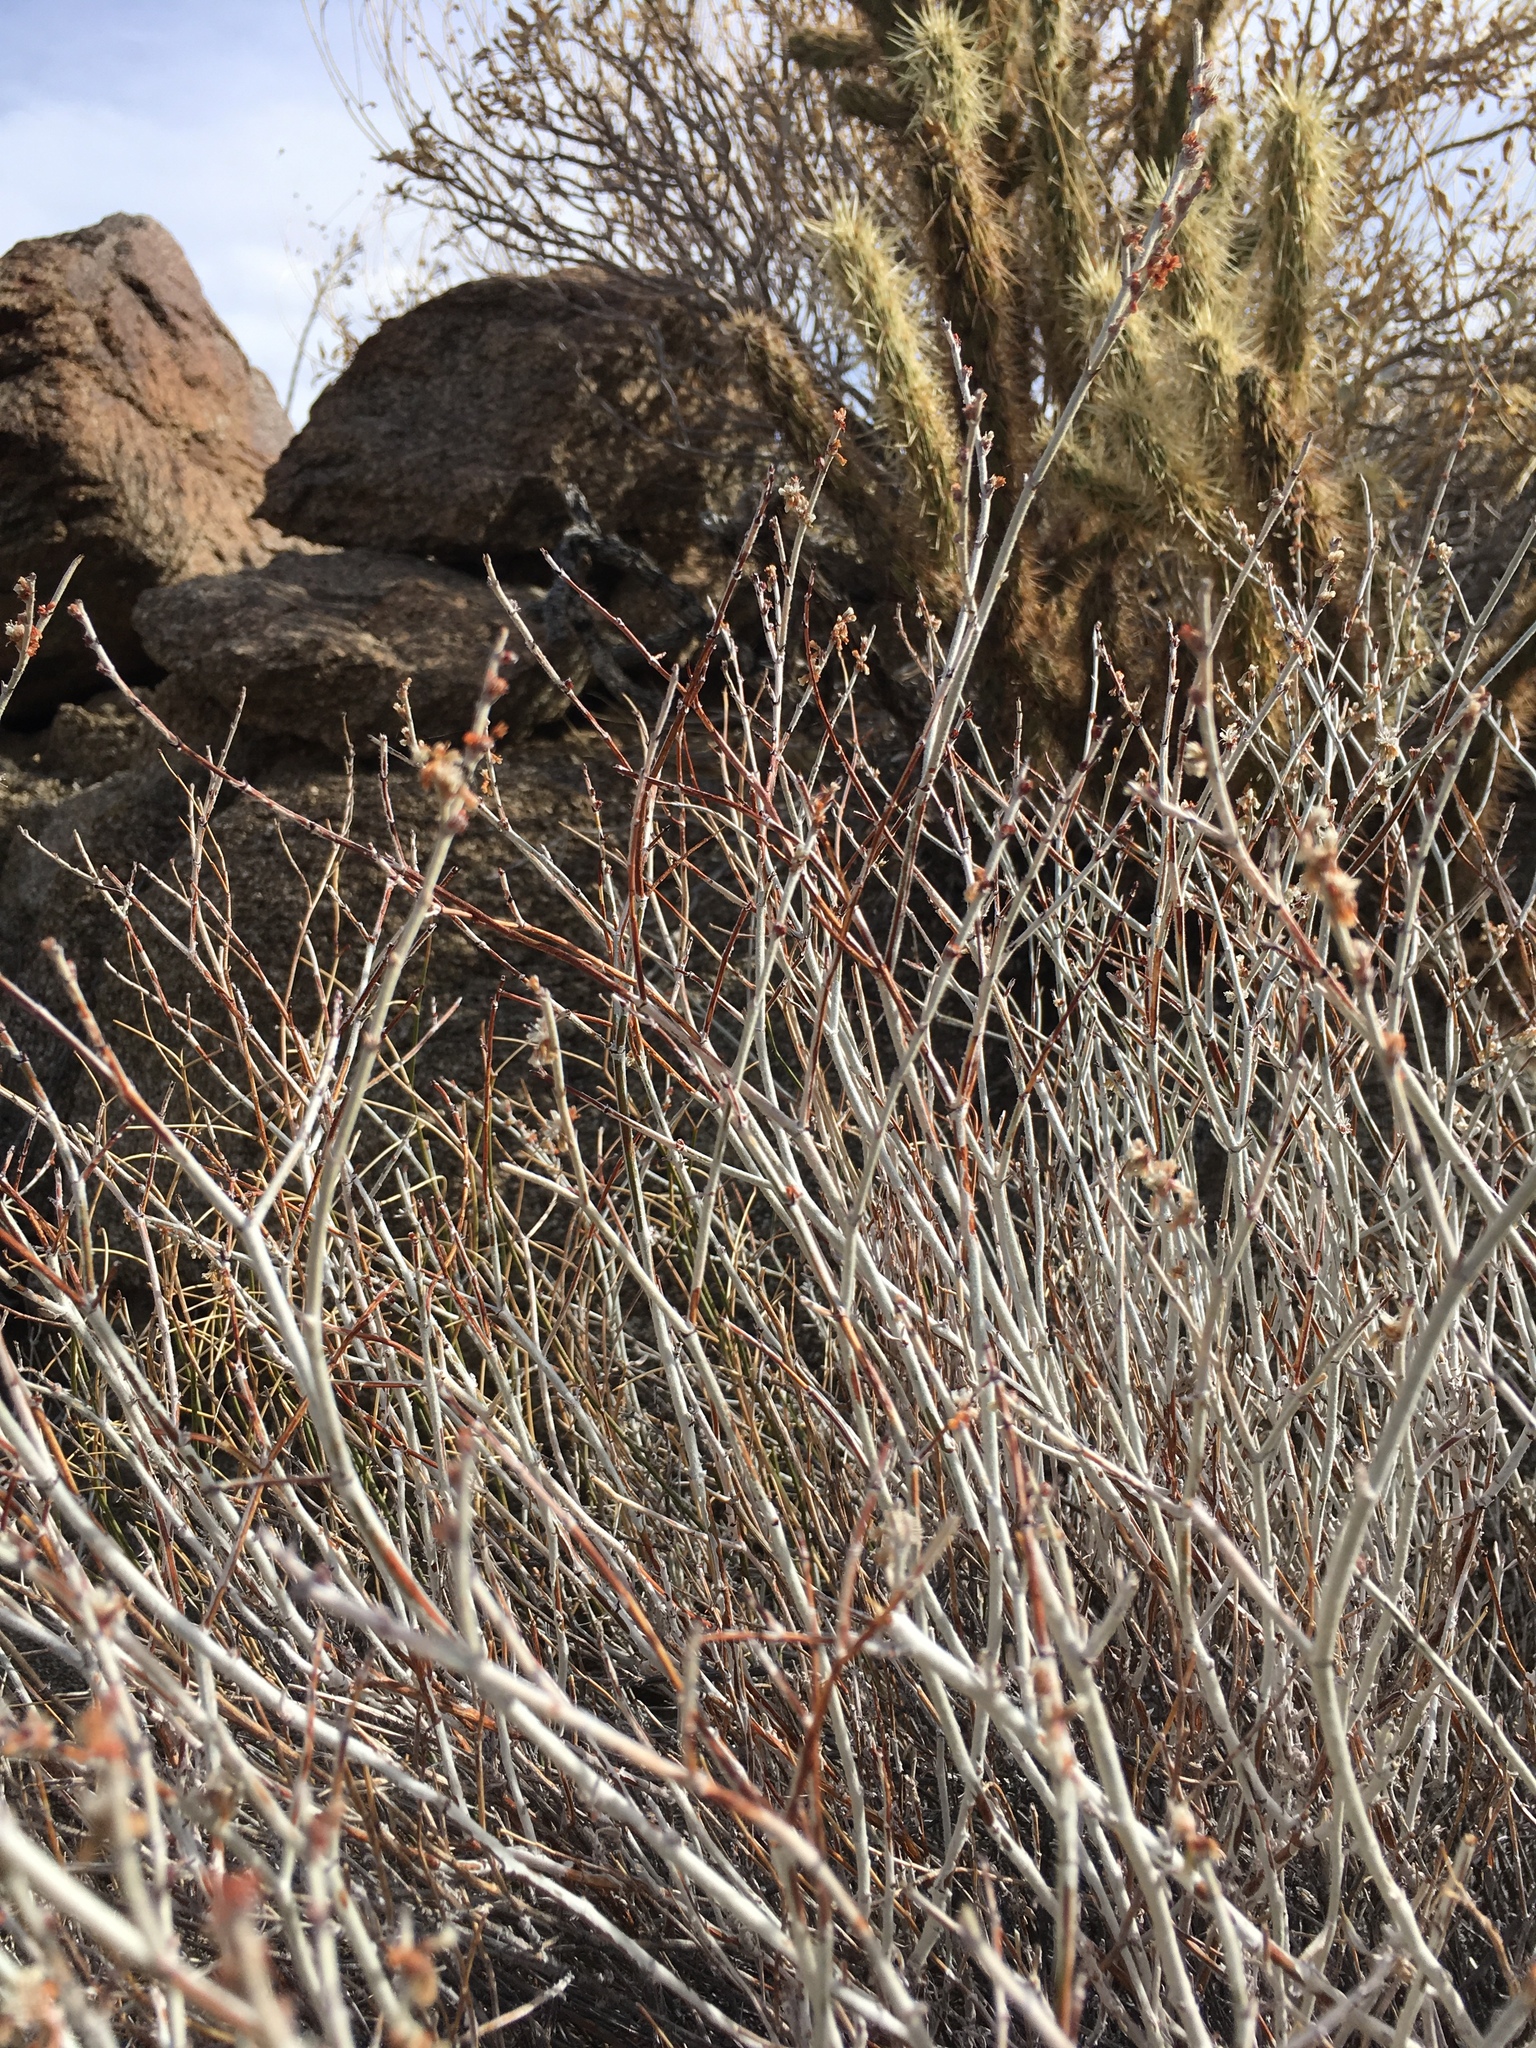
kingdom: Plantae
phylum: Tracheophyta
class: Magnoliopsida
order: Caryophyllales
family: Polygonaceae
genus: Eriogonum
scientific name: Eriogonum wrightii
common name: Bastard-sage
